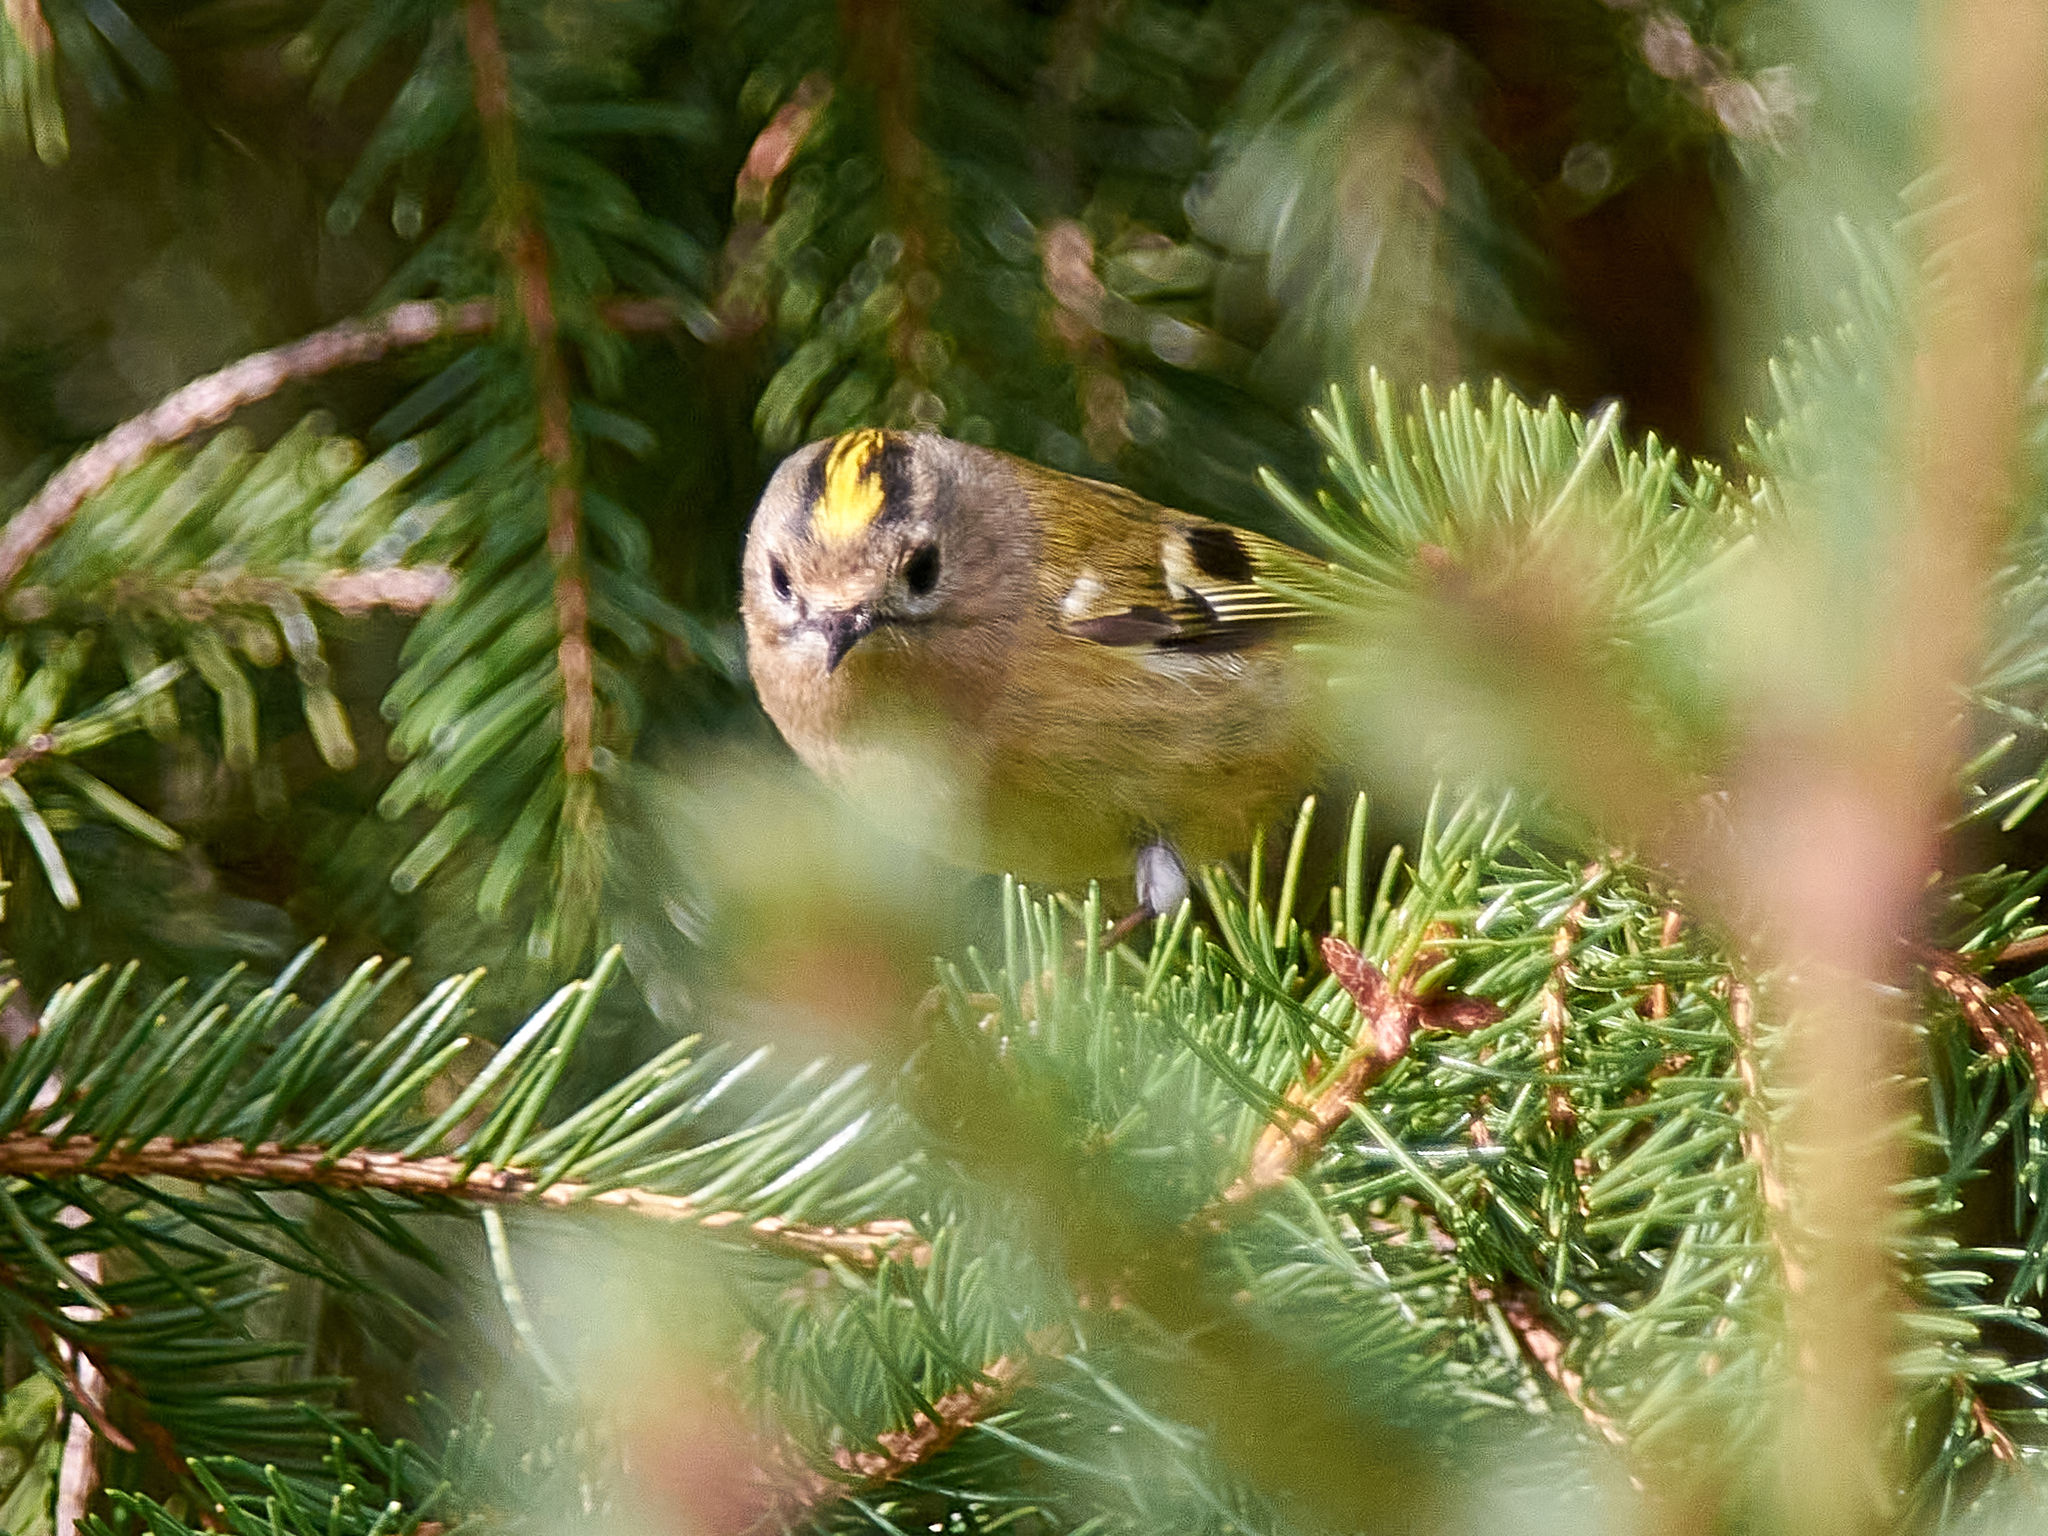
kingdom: Animalia
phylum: Chordata
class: Aves
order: Passeriformes
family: Regulidae
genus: Regulus
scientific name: Regulus regulus
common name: Goldcrest
